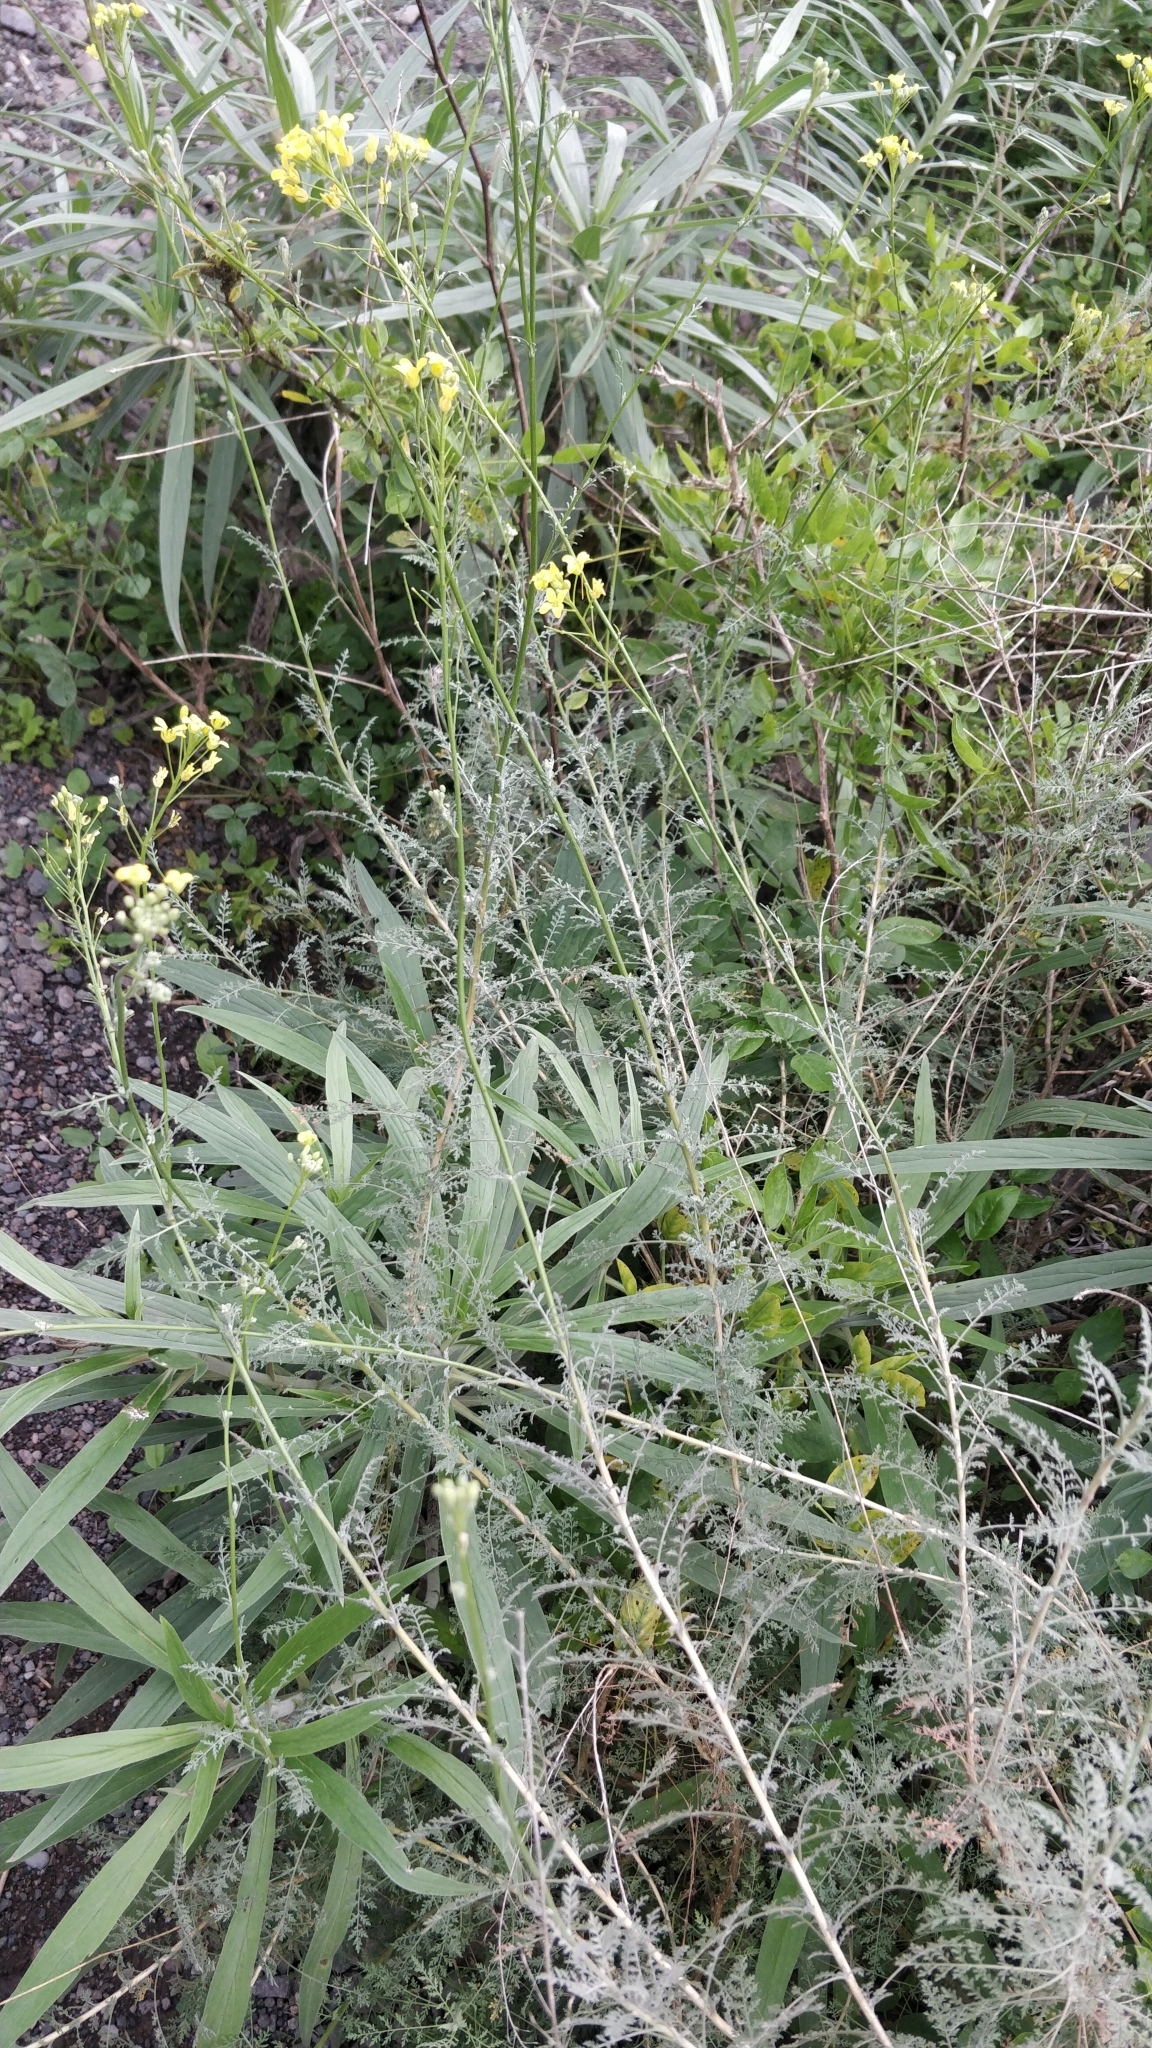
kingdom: Plantae
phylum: Tracheophyta
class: Magnoliopsida
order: Brassicales
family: Brassicaceae
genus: Descurainia
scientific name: Descurainia millefolia
